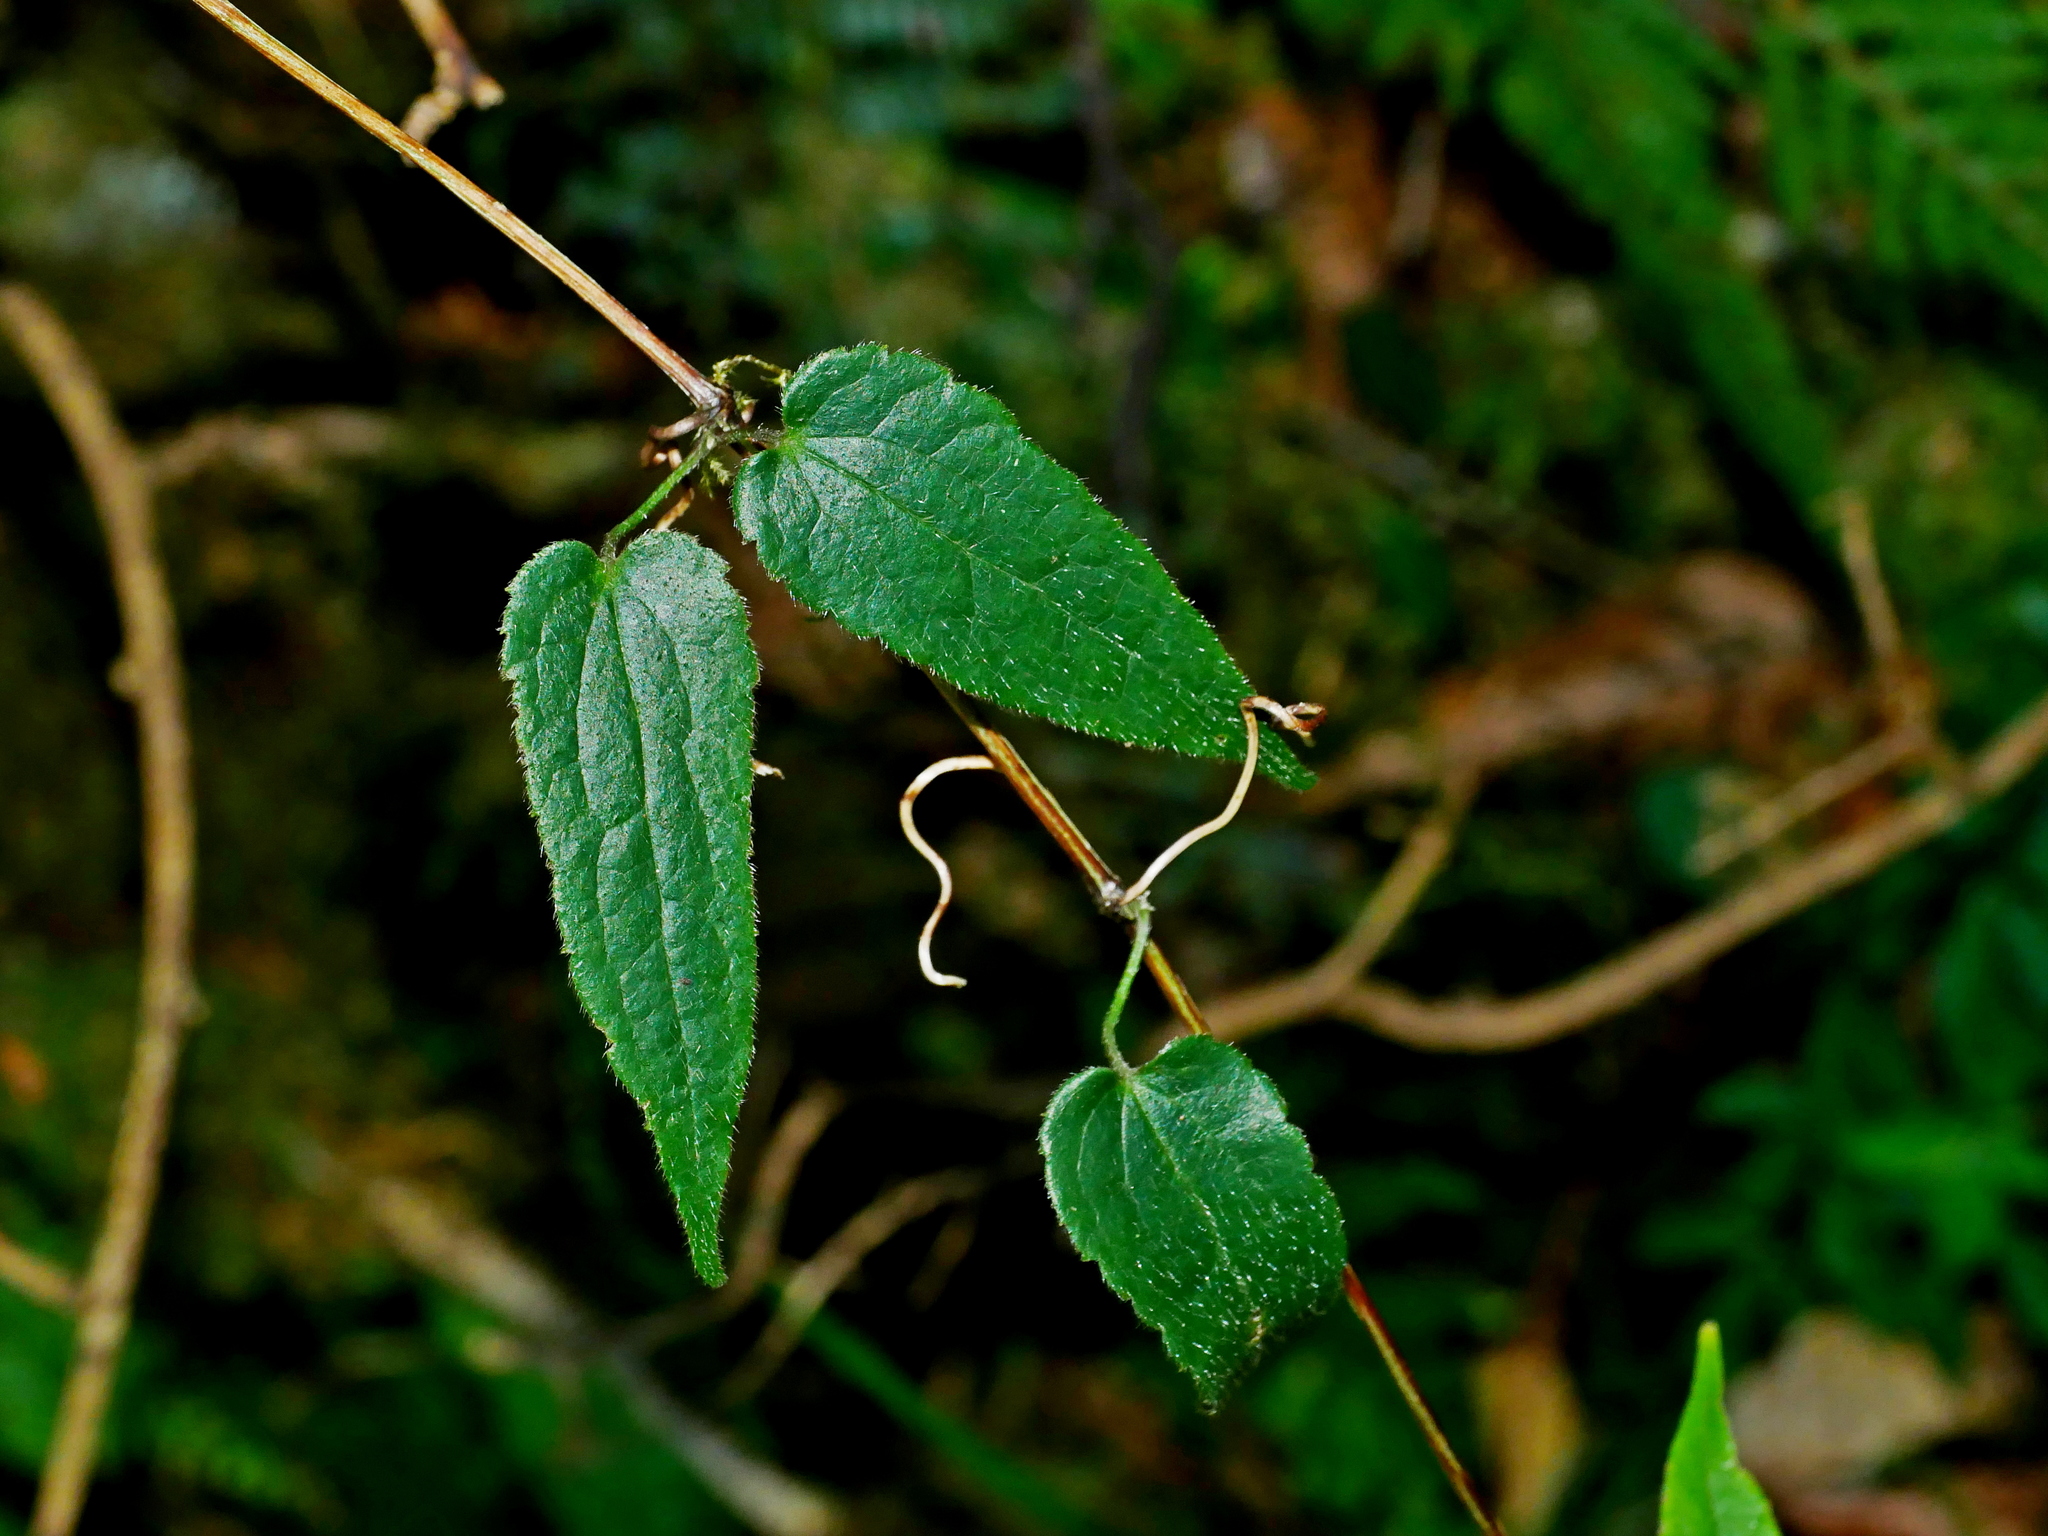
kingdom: Plantae
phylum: Tracheophyta
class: Magnoliopsida
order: Ranunculales
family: Ranunculaceae
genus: Clematis
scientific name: Clematis
